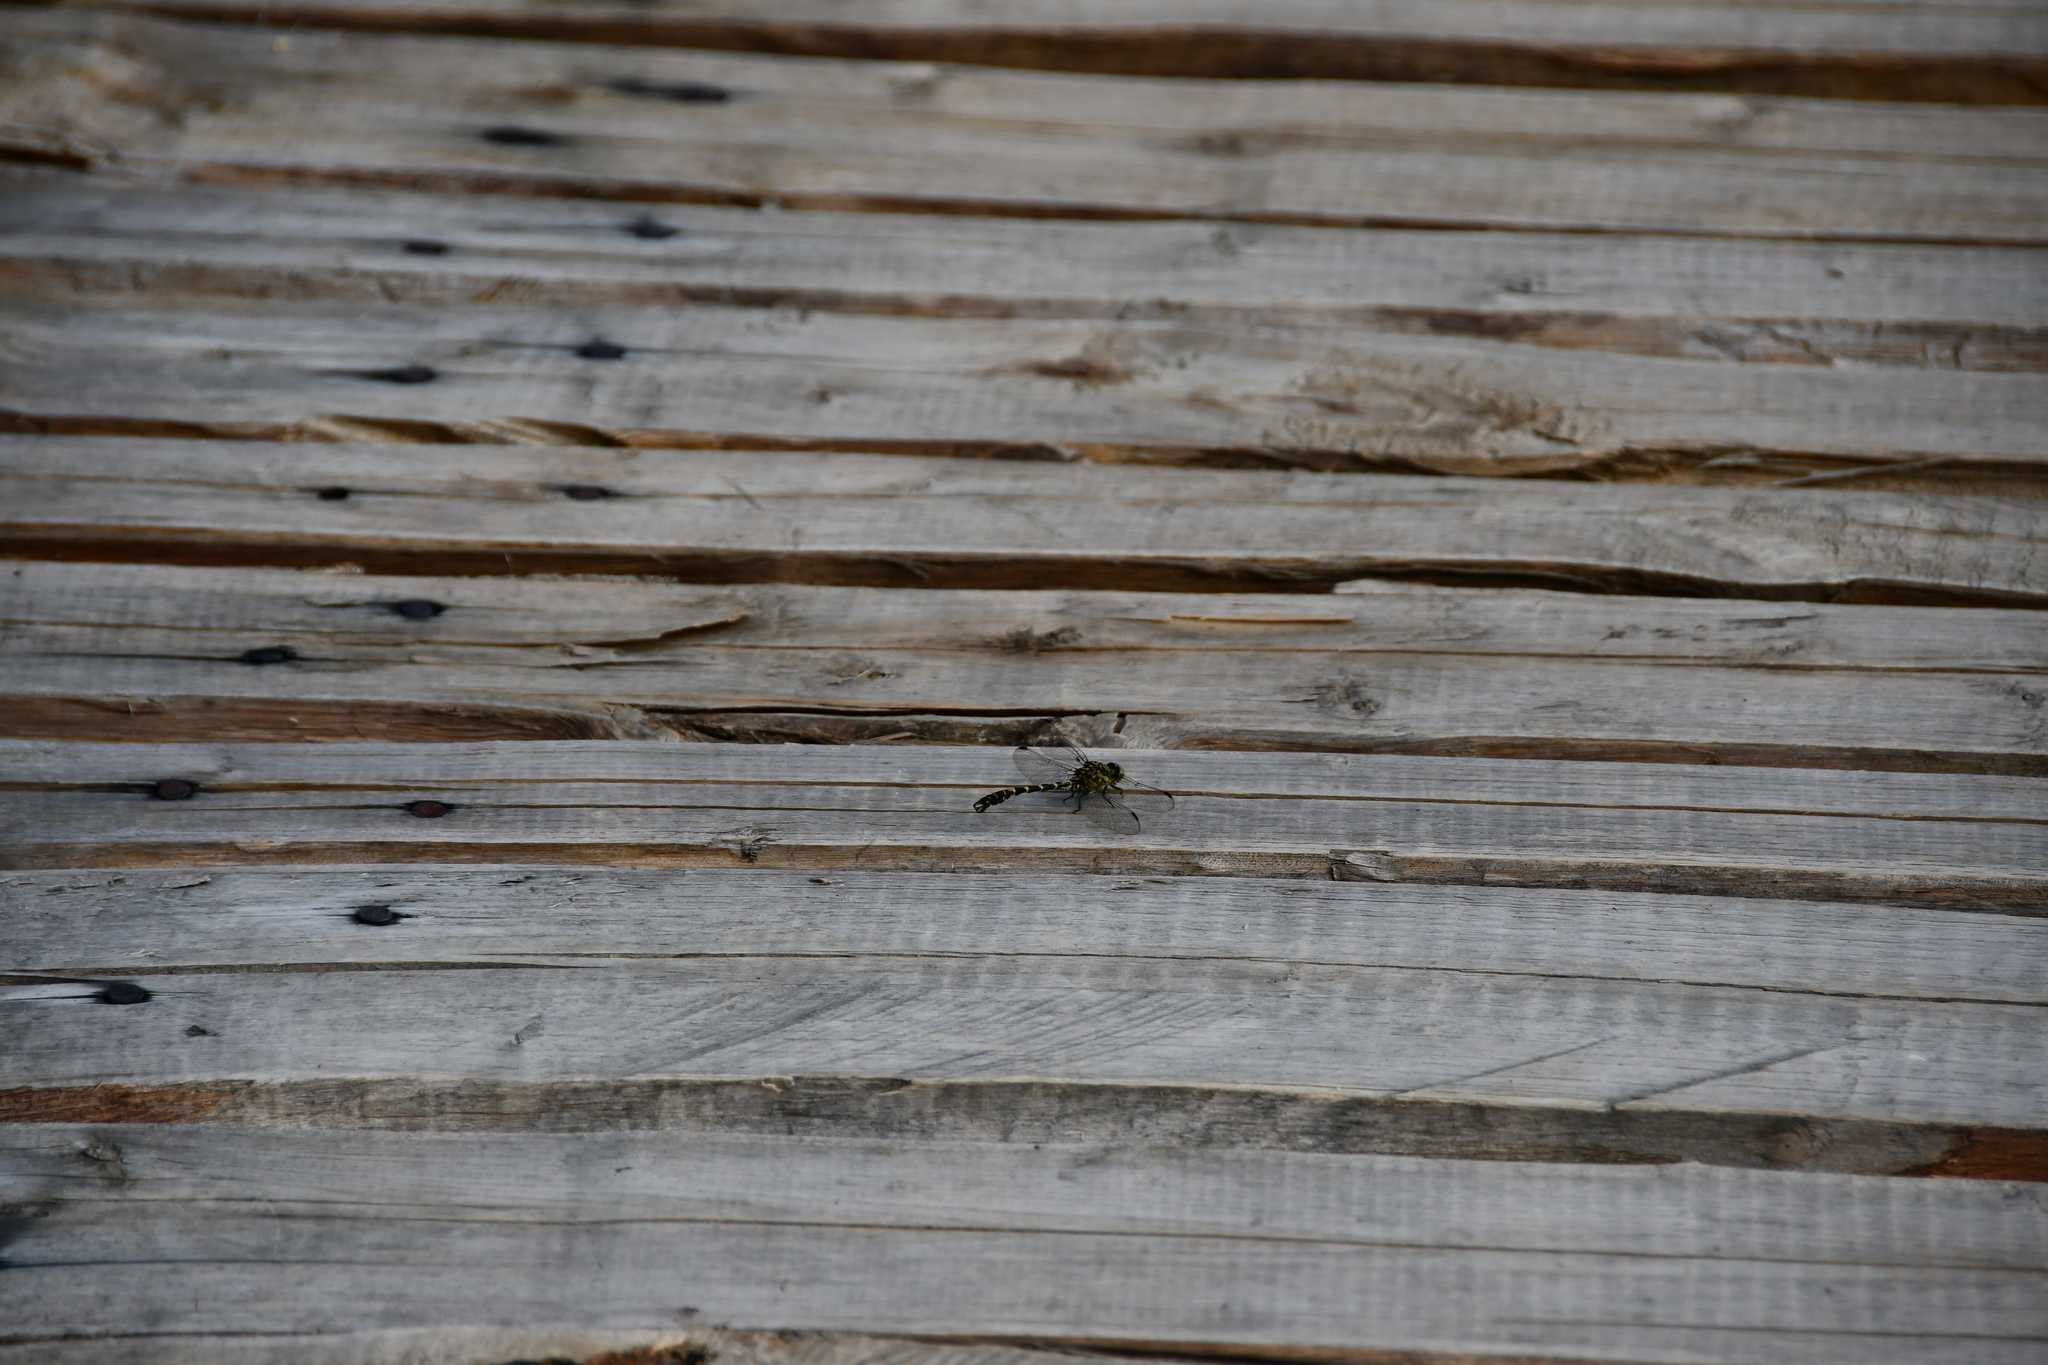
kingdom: Animalia
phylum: Arthropoda
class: Insecta
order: Odonata
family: Gomphidae
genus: Onychogomphus
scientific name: Onychogomphus forcipatus
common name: Small pincertail
